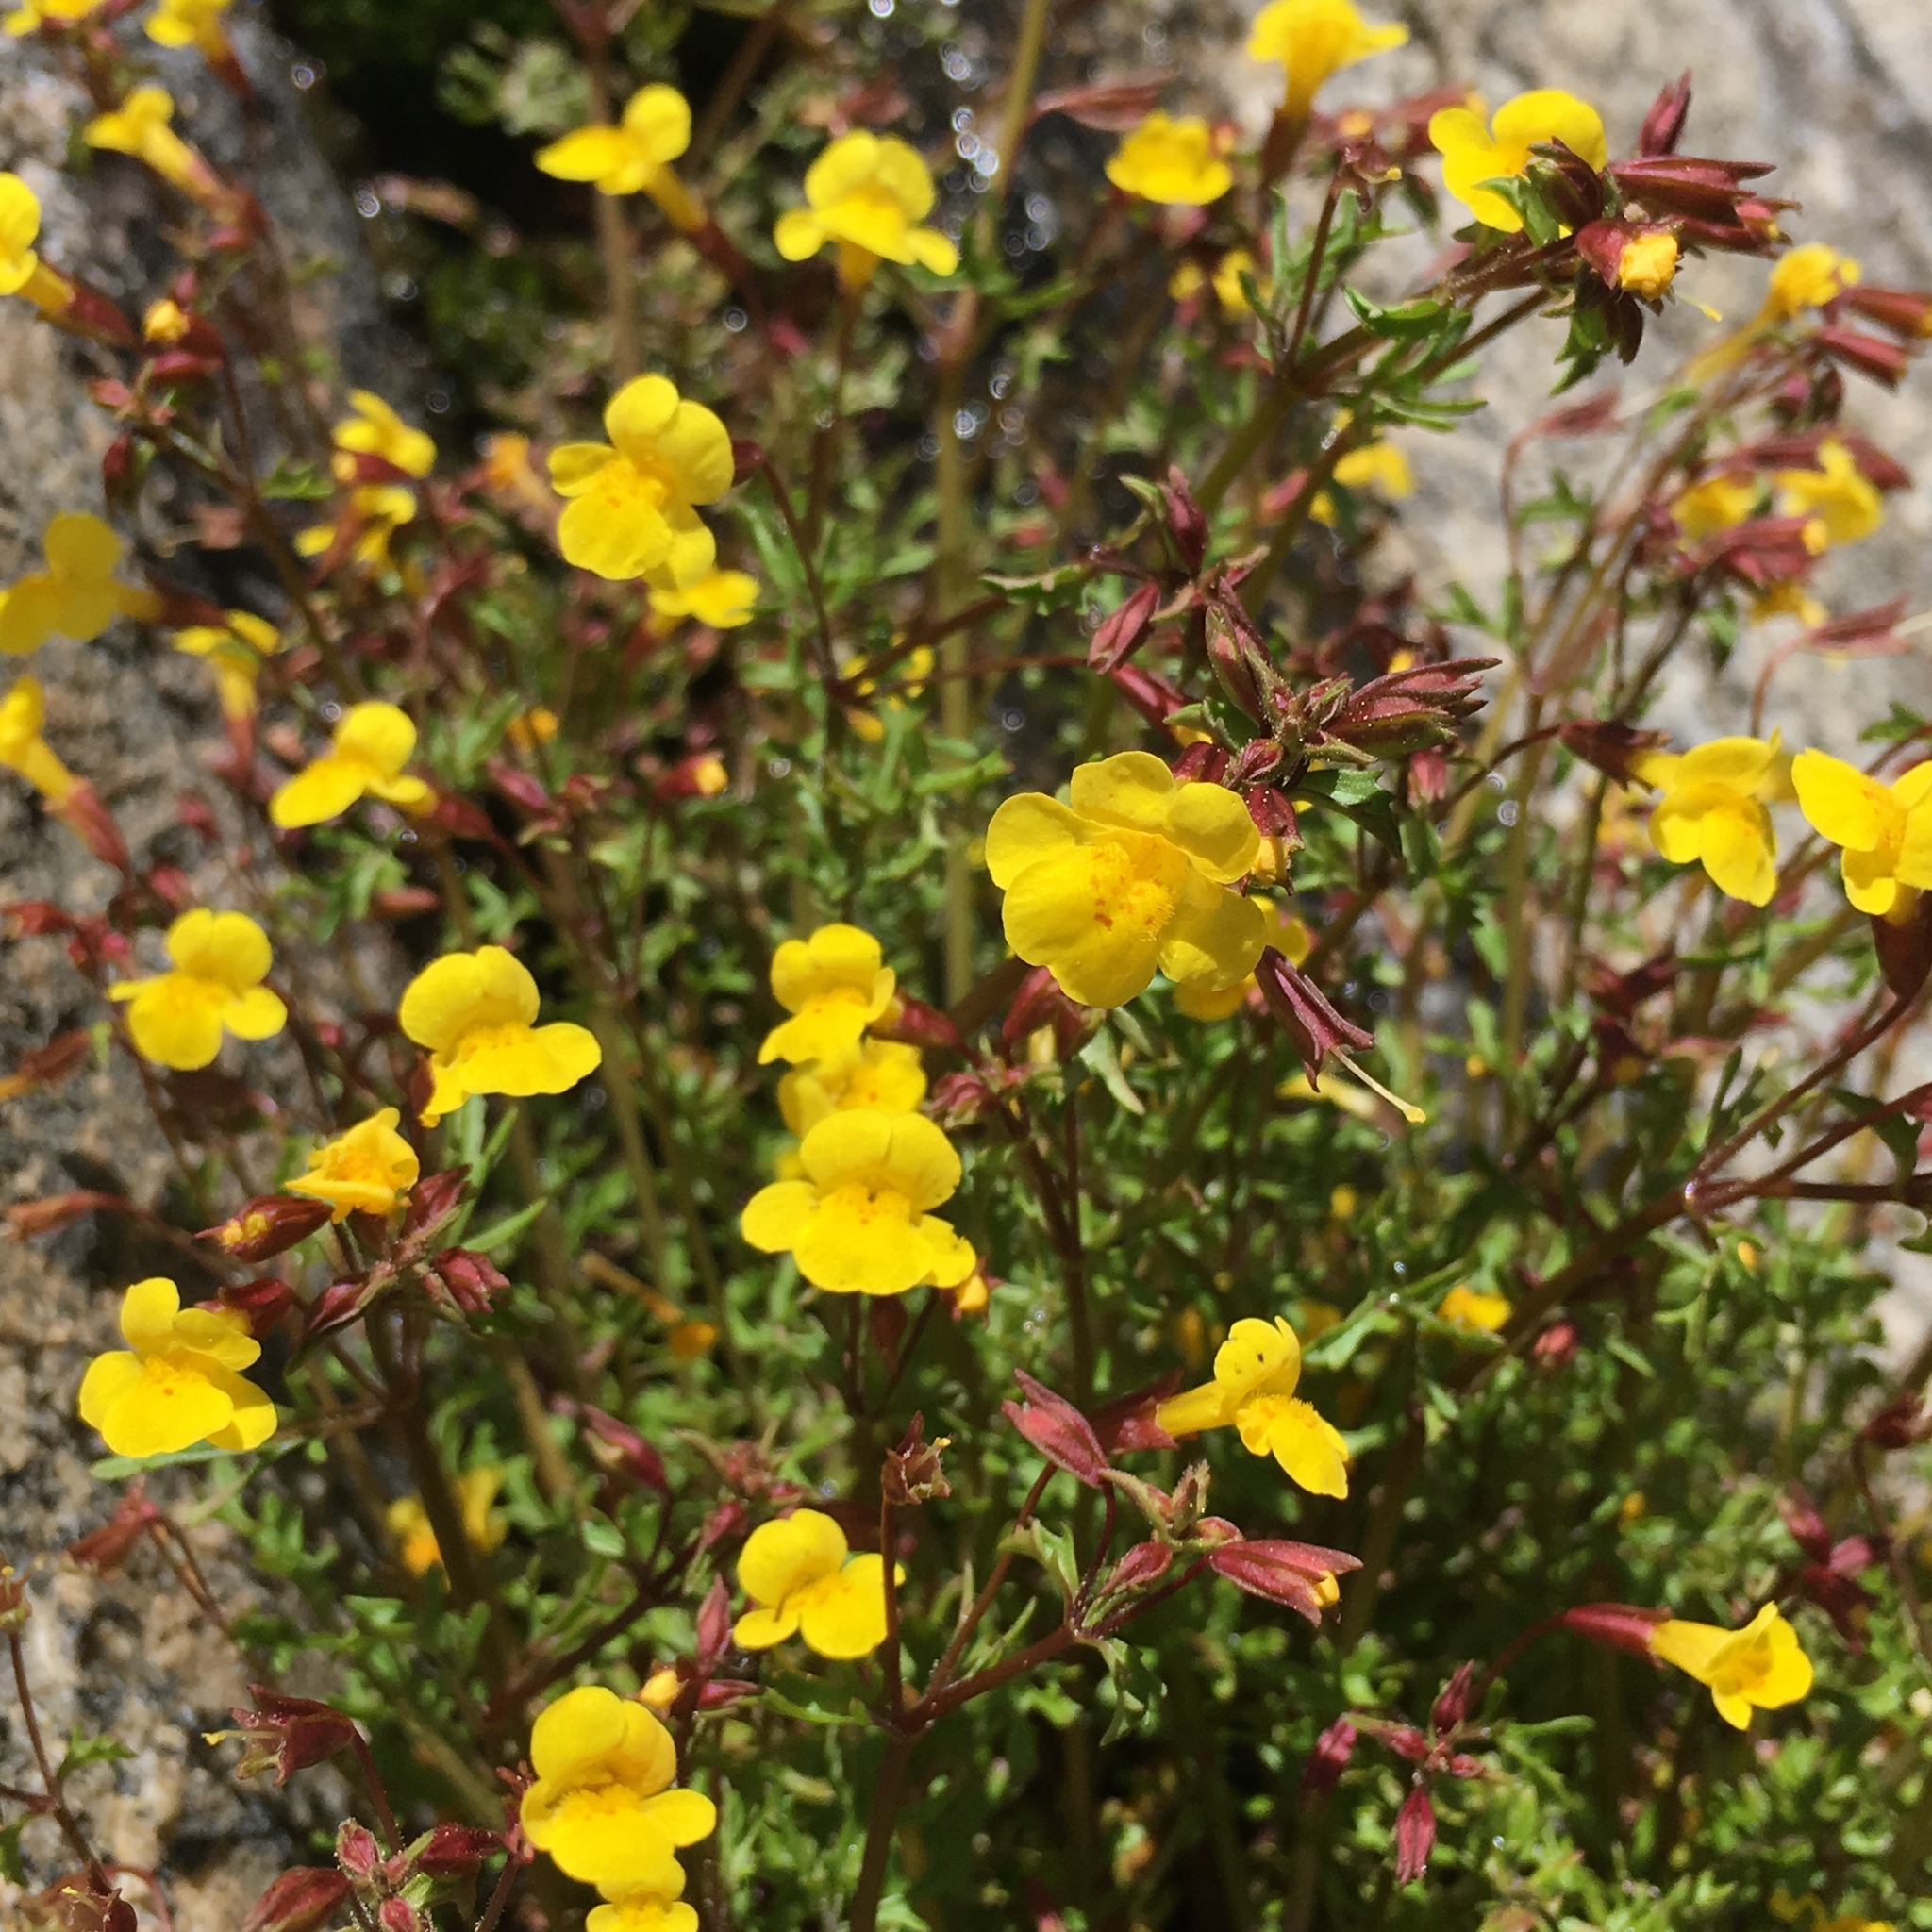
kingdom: Plantae
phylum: Tracheophyta
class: Magnoliopsida
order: Lamiales
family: Phrymaceae
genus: Erythranthe
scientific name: Erythranthe laciniata
